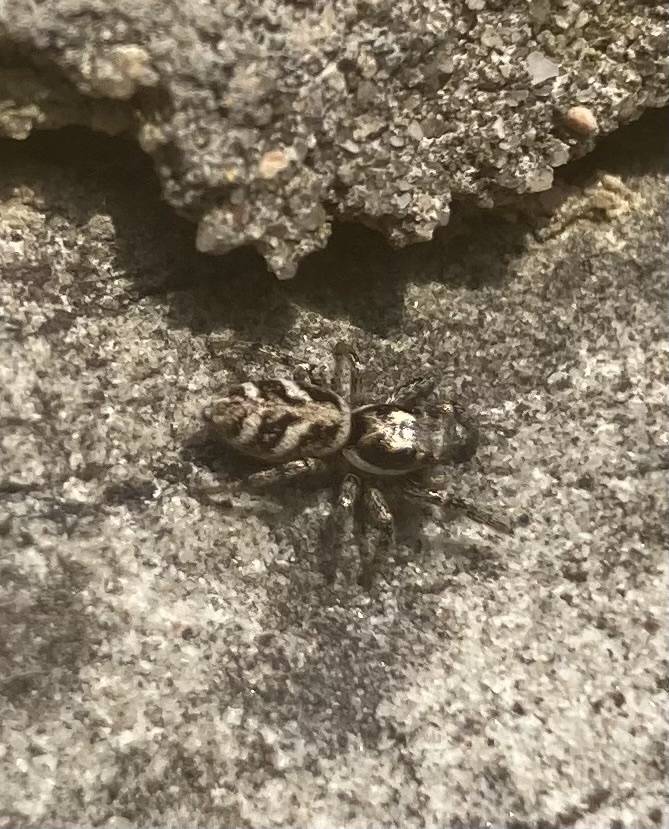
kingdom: Animalia
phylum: Arthropoda
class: Arachnida
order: Araneae
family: Salticidae
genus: Salticus
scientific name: Salticus scenicus
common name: Zebra jumper
